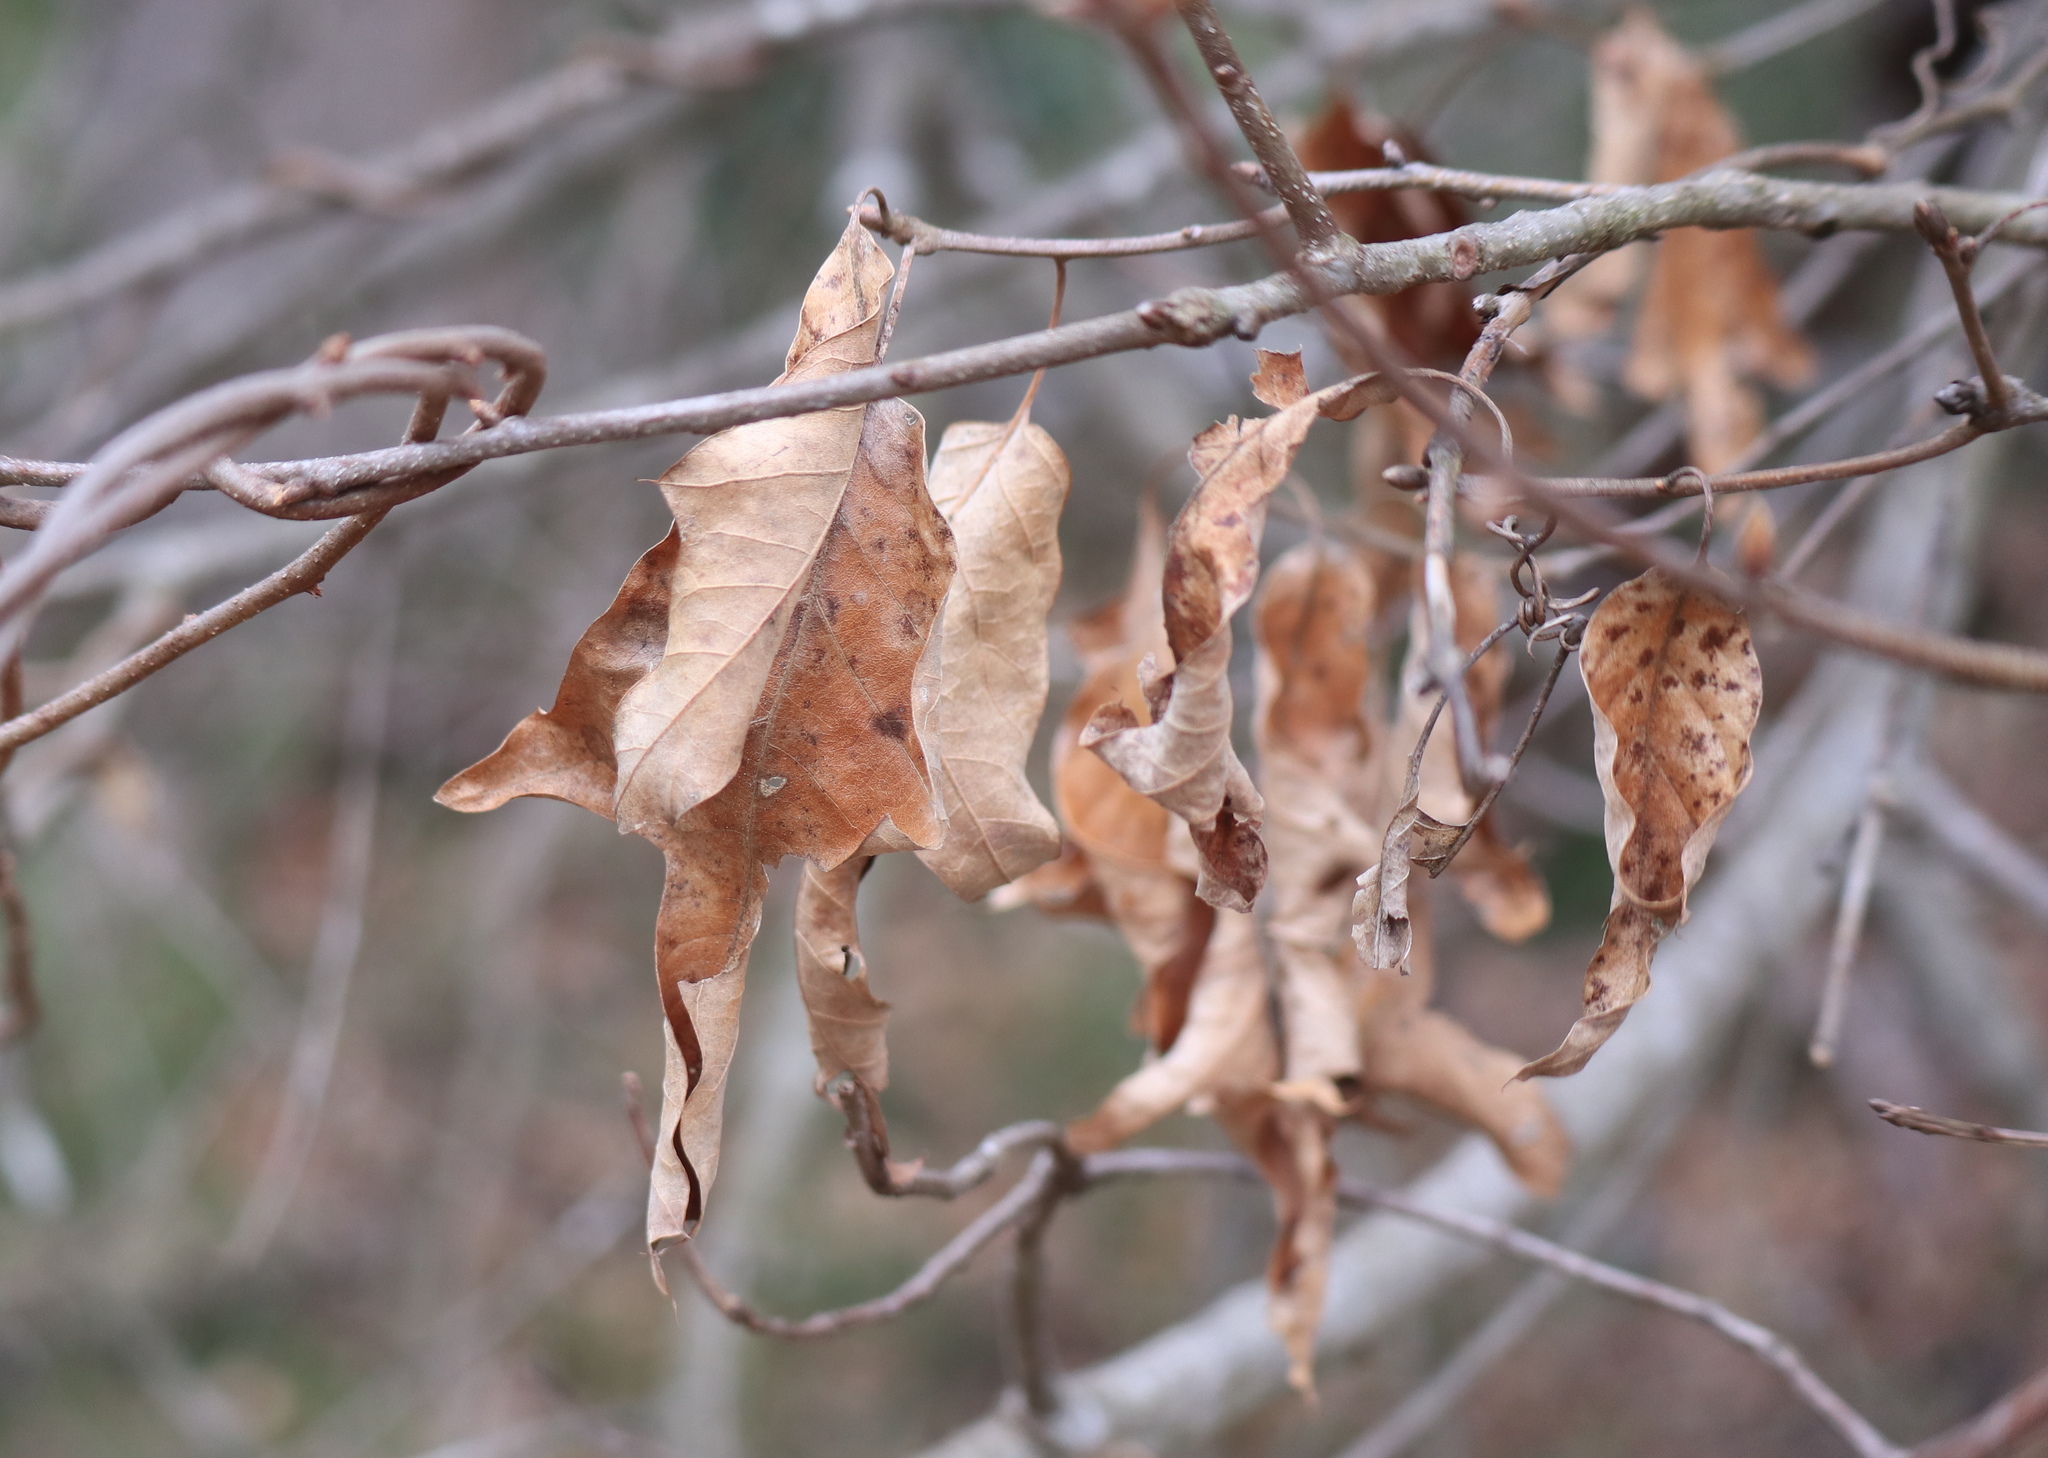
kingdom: Plantae
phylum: Tracheophyta
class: Magnoliopsida
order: Fagales
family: Fagaceae
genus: Quercus
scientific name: Quercus falcata
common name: Southern red oak
